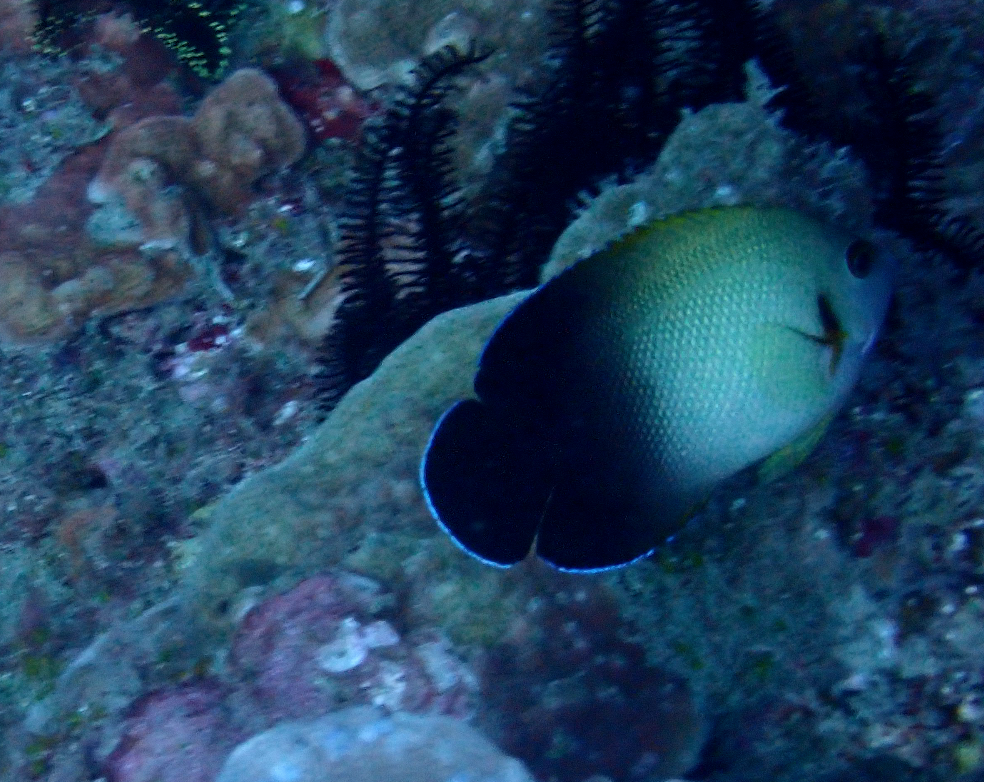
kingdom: Animalia
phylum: Chordata
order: Perciformes
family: Pomacanthidae
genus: Centropyge
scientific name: Centropyge vrolikii
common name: Pearlscale angelfish
